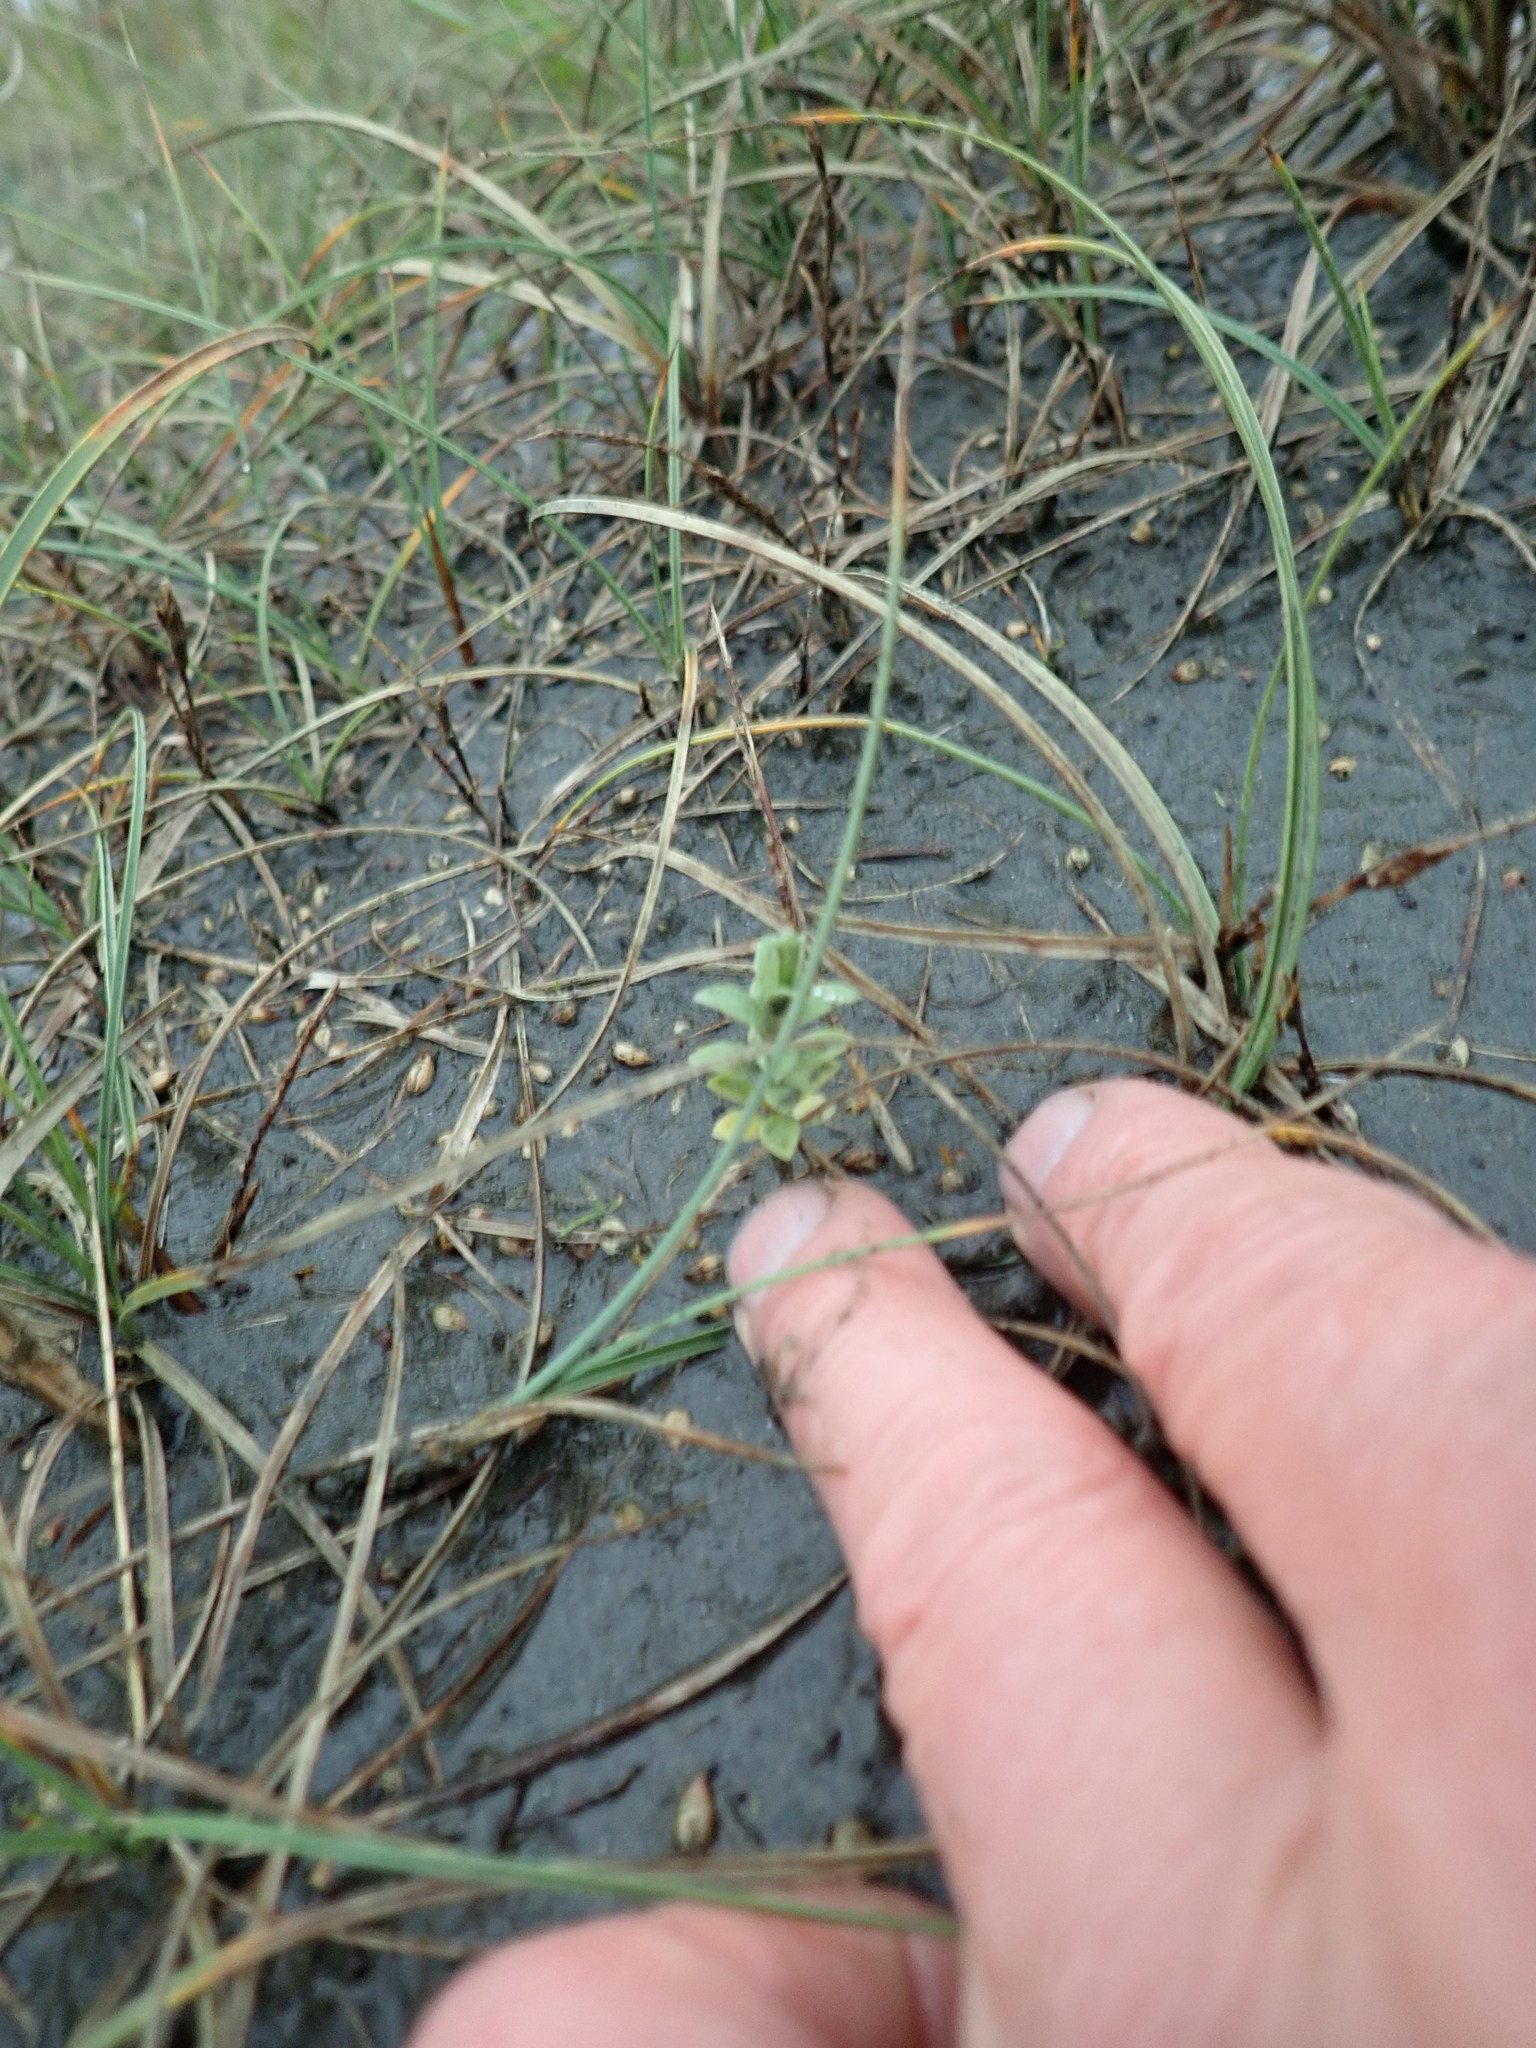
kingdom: Plantae
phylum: Tracheophyta
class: Magnoliopsida
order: Malvales
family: Thymelaeaceae
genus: Pimelea
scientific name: Pimelea villosa
